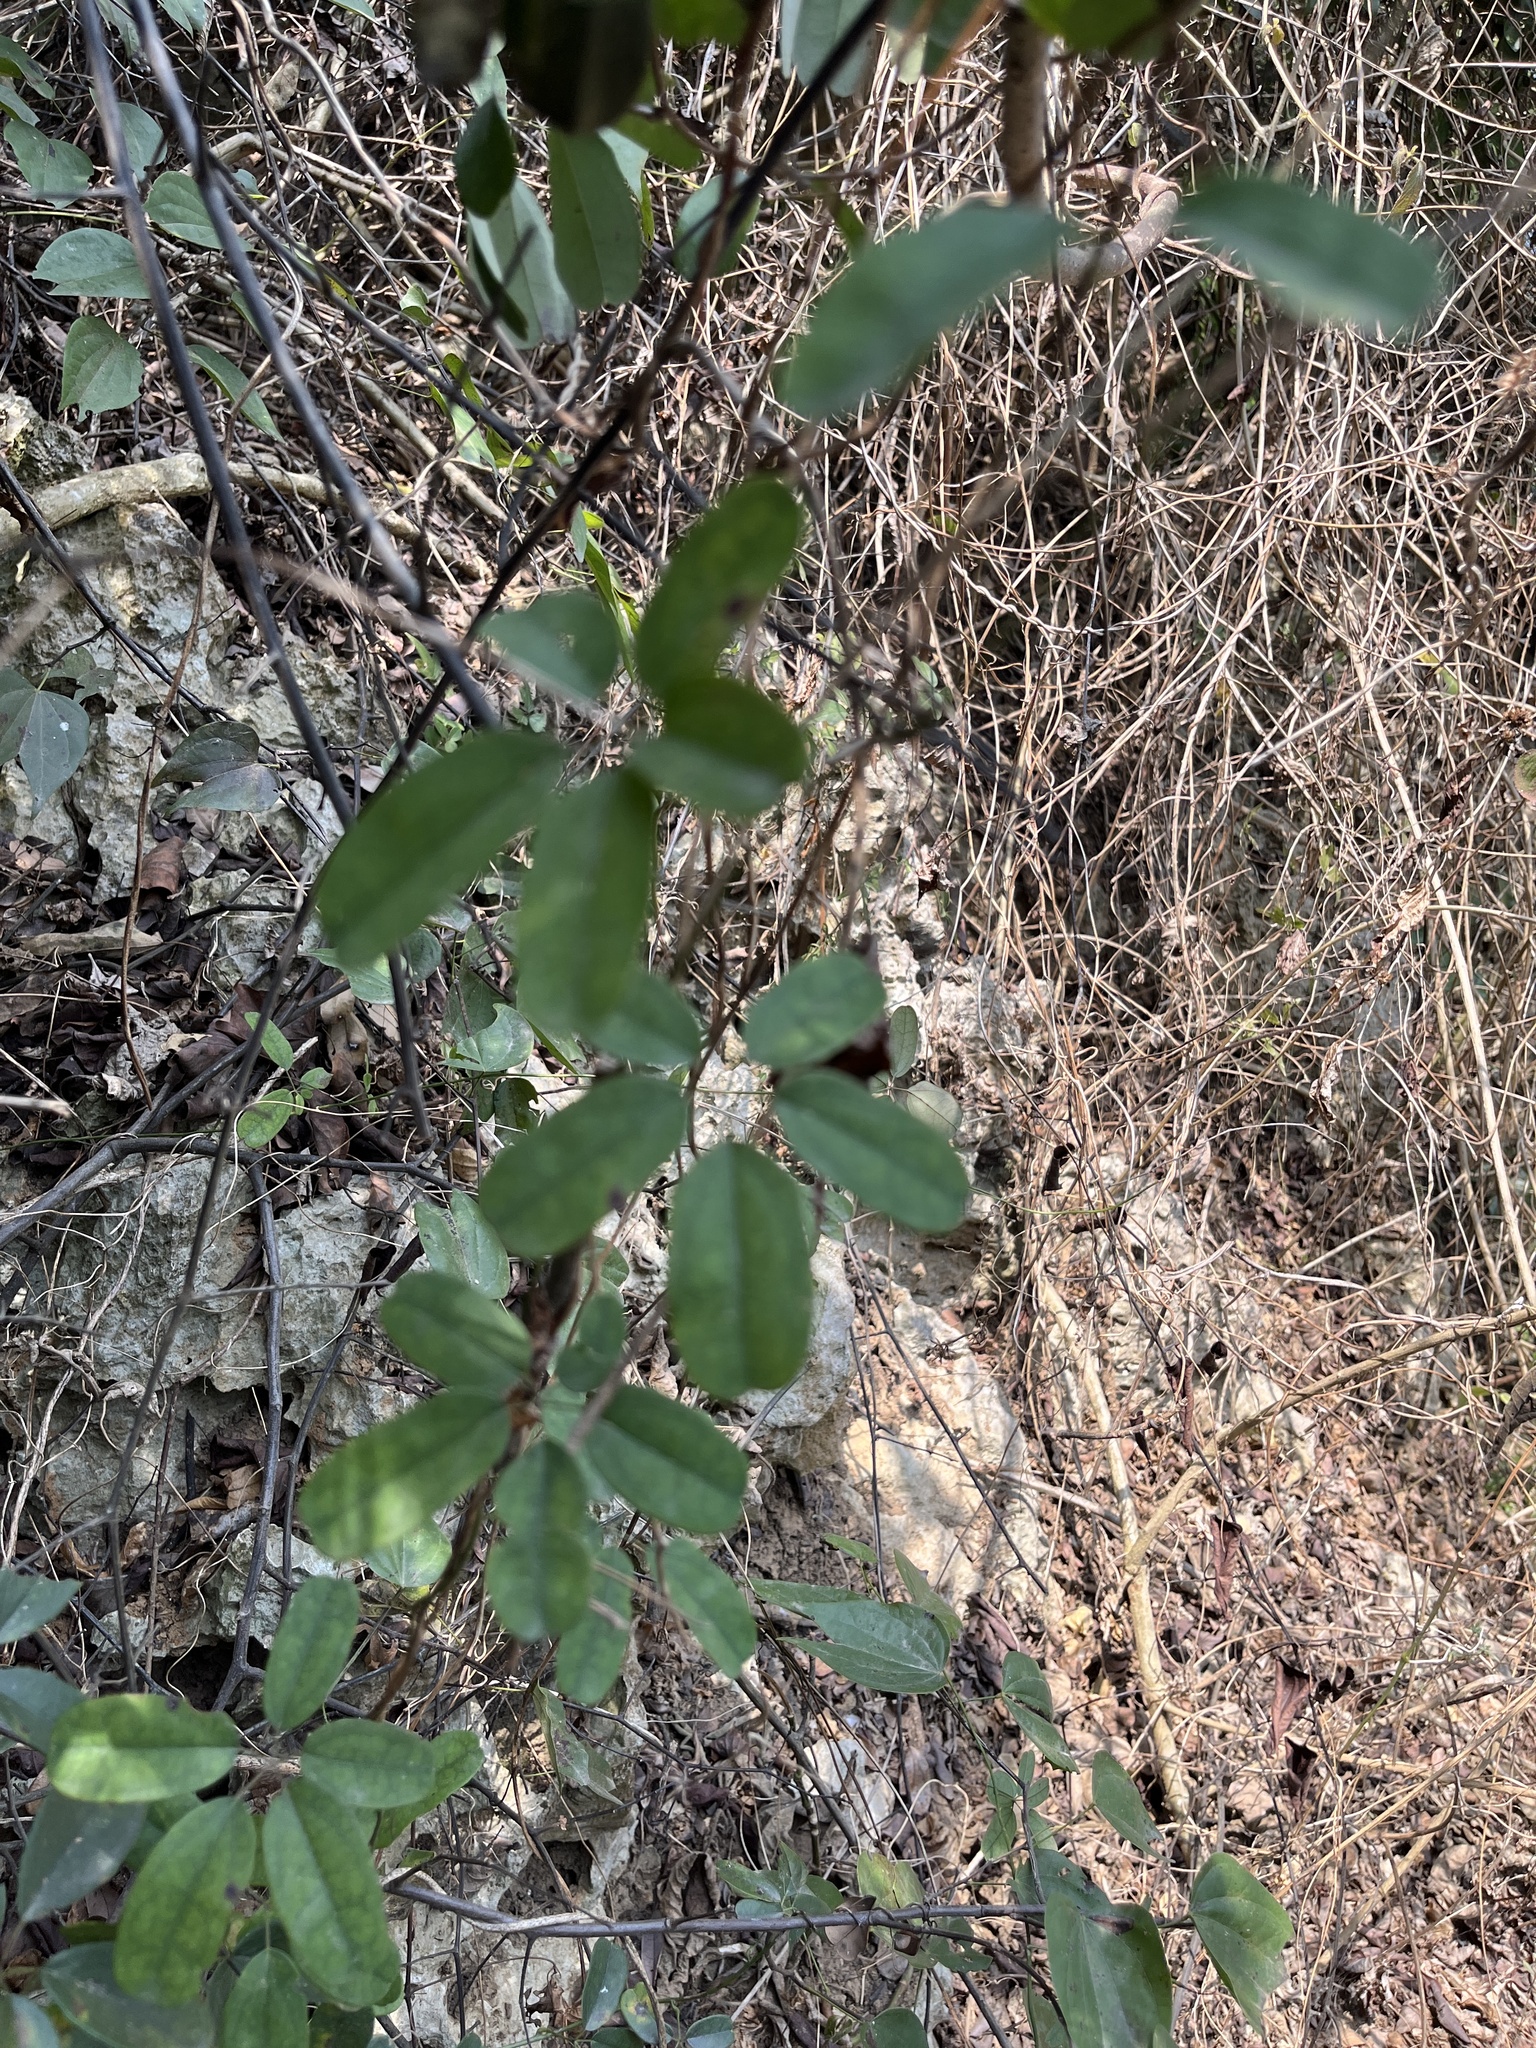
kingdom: Plantae
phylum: Tracheophyta
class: Magnoliopsida
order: Ranunculales
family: Lardizabalaceae
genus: Akebia
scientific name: Akebia longeracemosa
